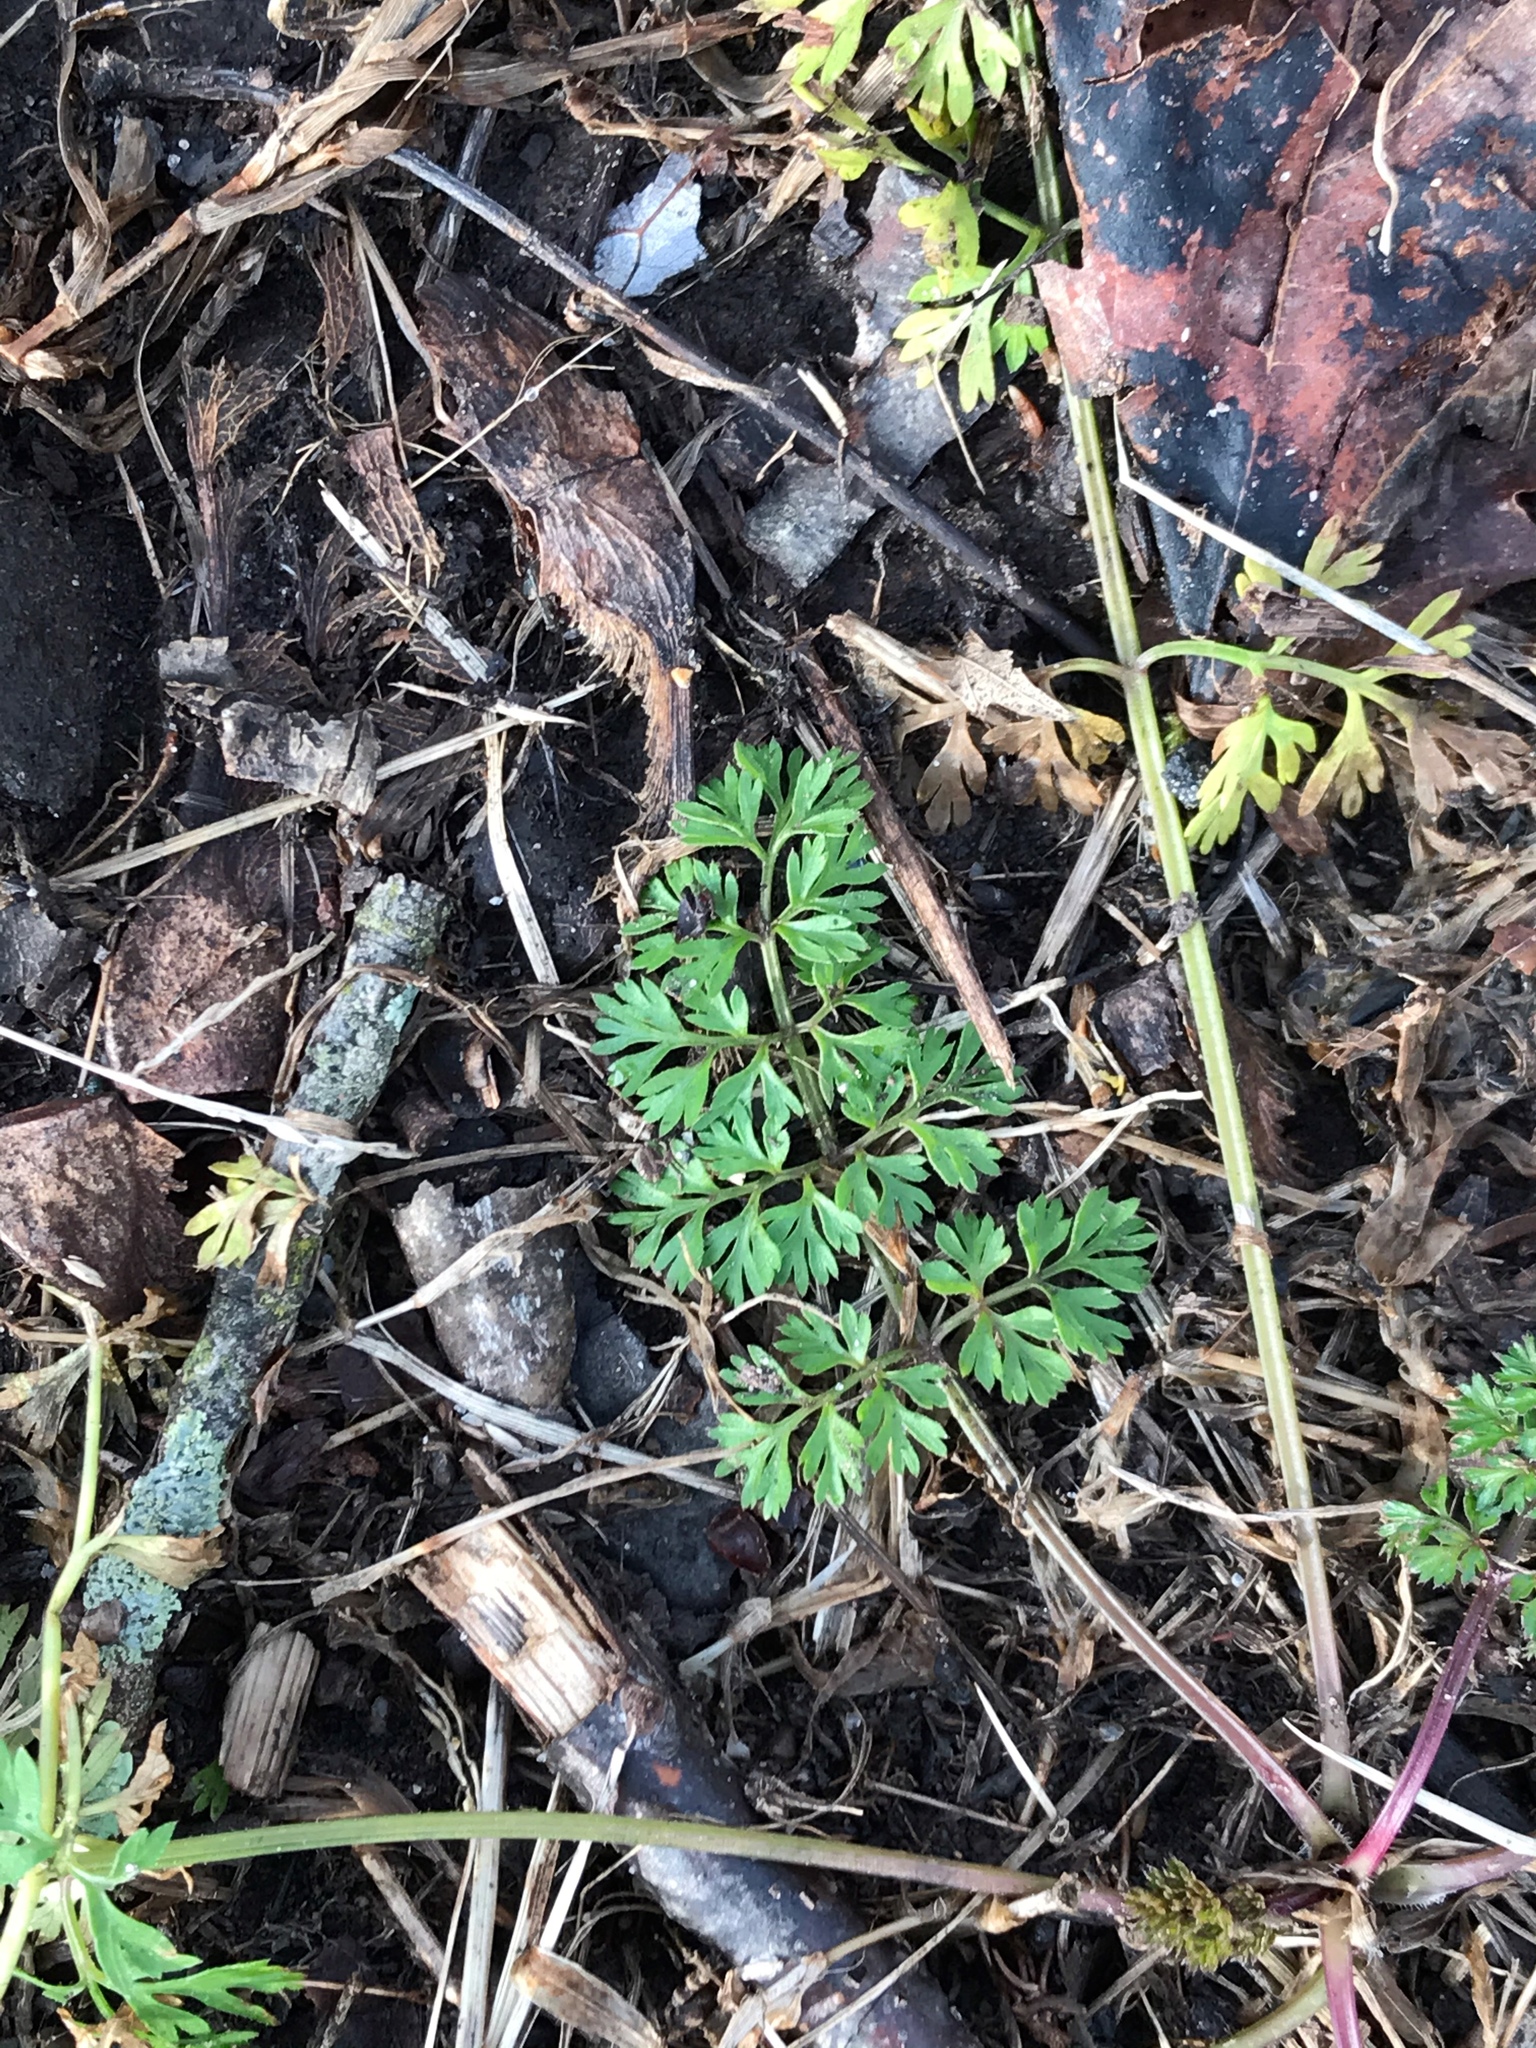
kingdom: Plantae
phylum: Tracheophyta
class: Magnoliopsida
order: Apiales
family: Apiaceae
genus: Daucus
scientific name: Daucus carota
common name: Wild carrot
